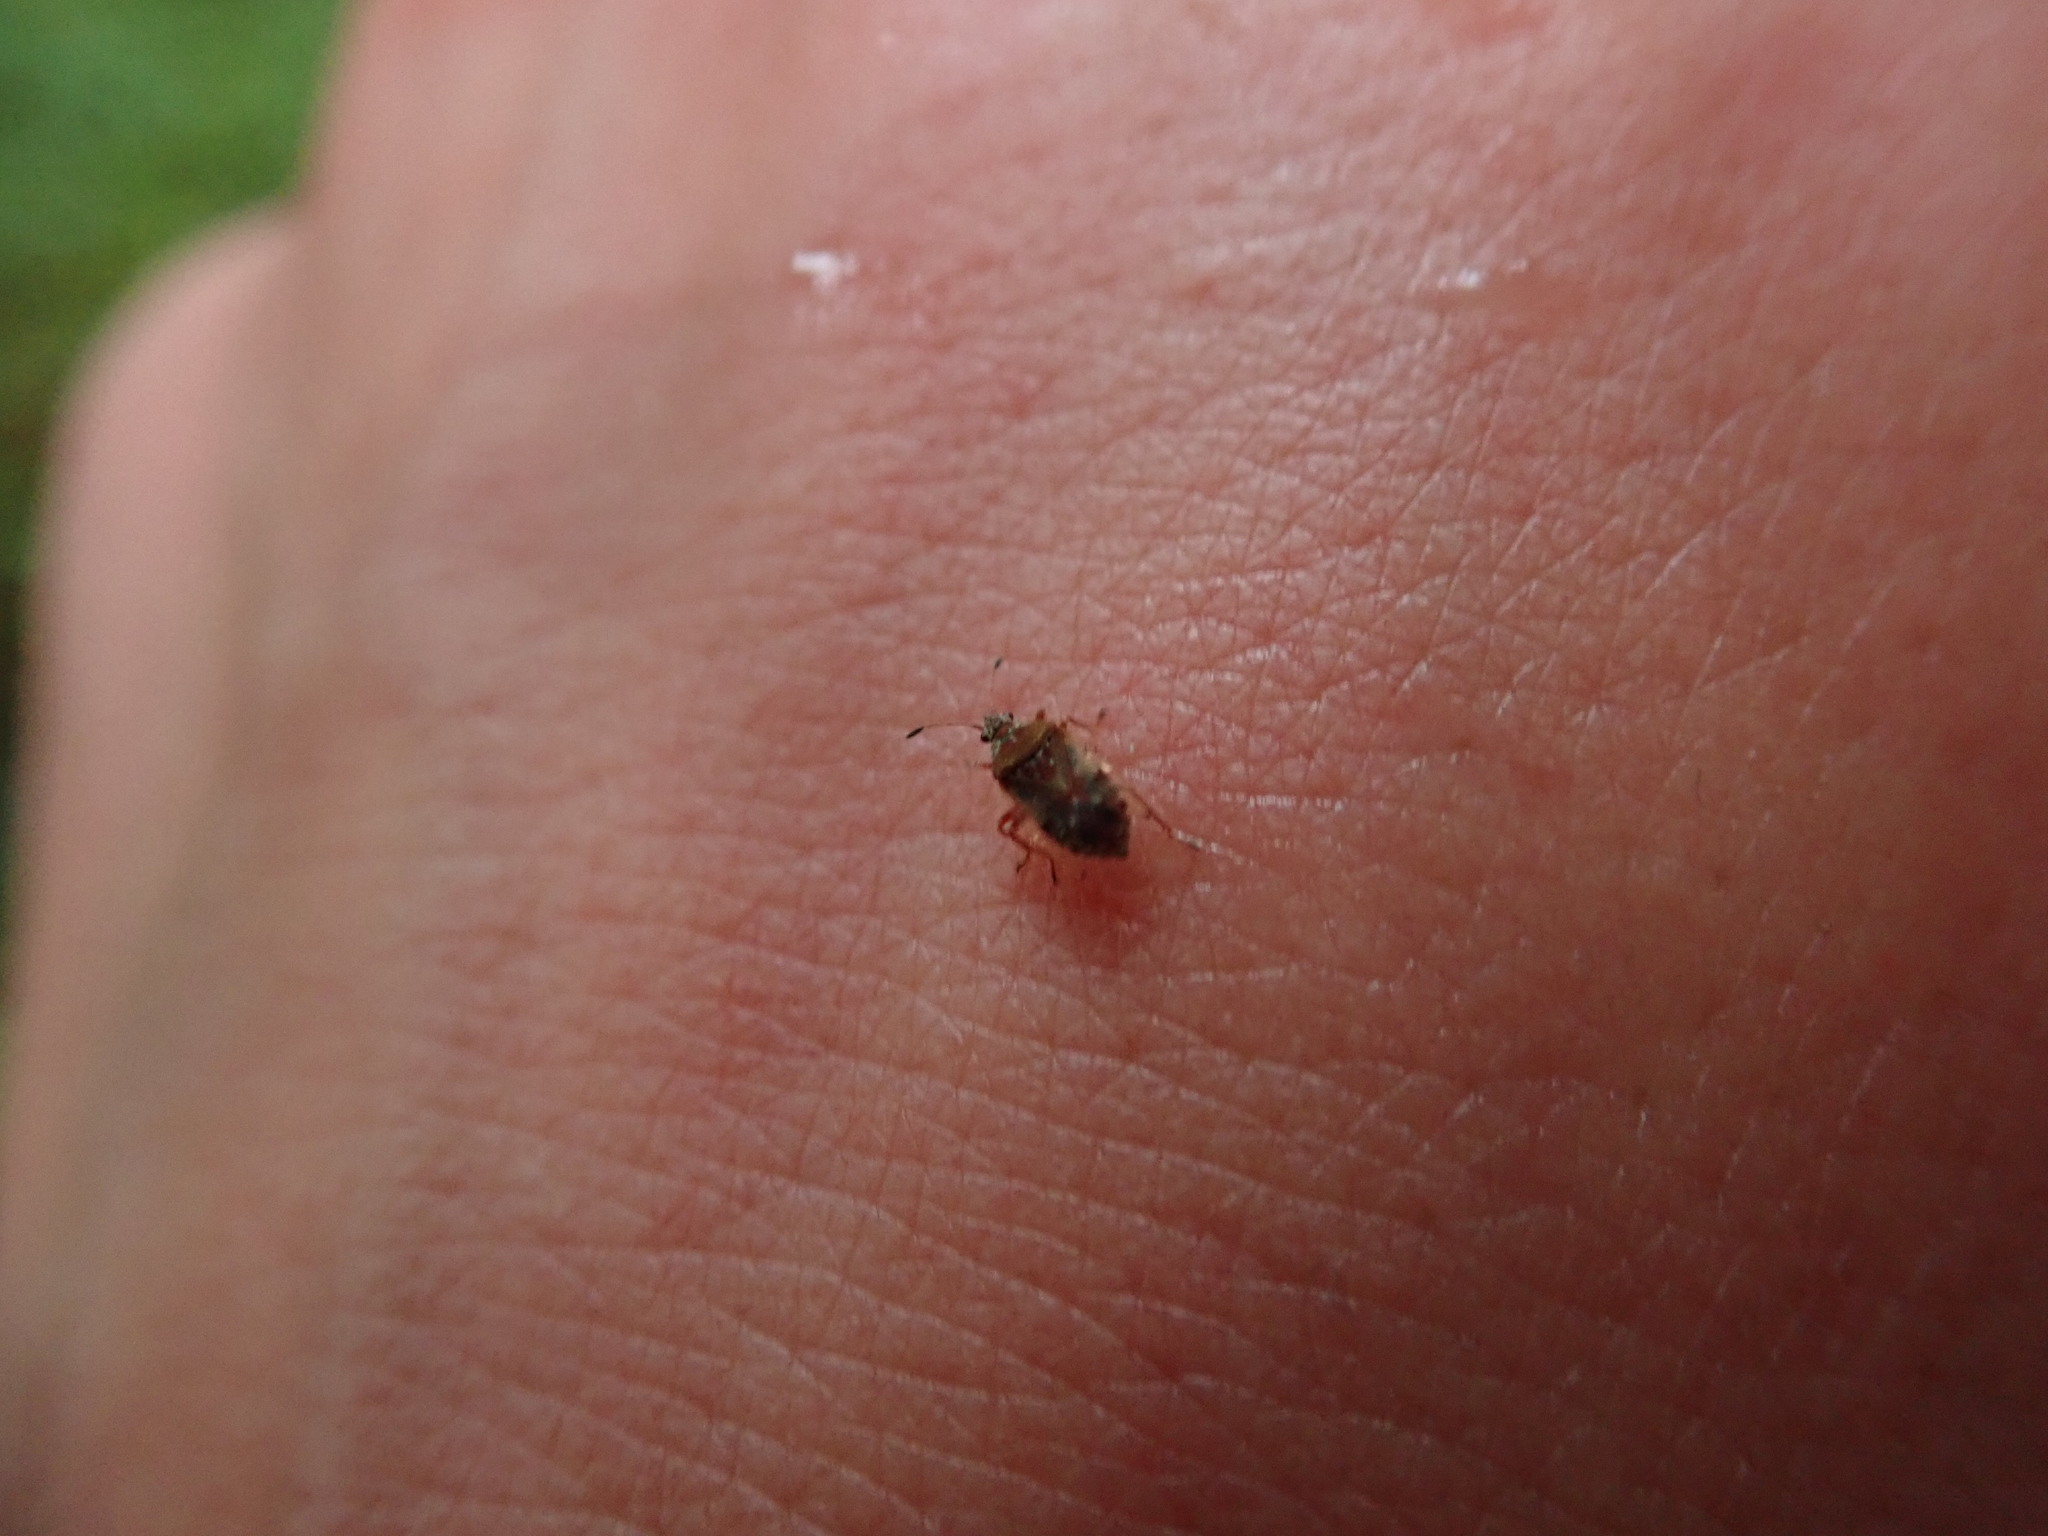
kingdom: Animalia
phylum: Arthropoda
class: Insecta
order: Hemiptera
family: Lygaeidae
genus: Kleidocerys
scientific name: Kleidocerys resedae
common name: Birch catkin bug
